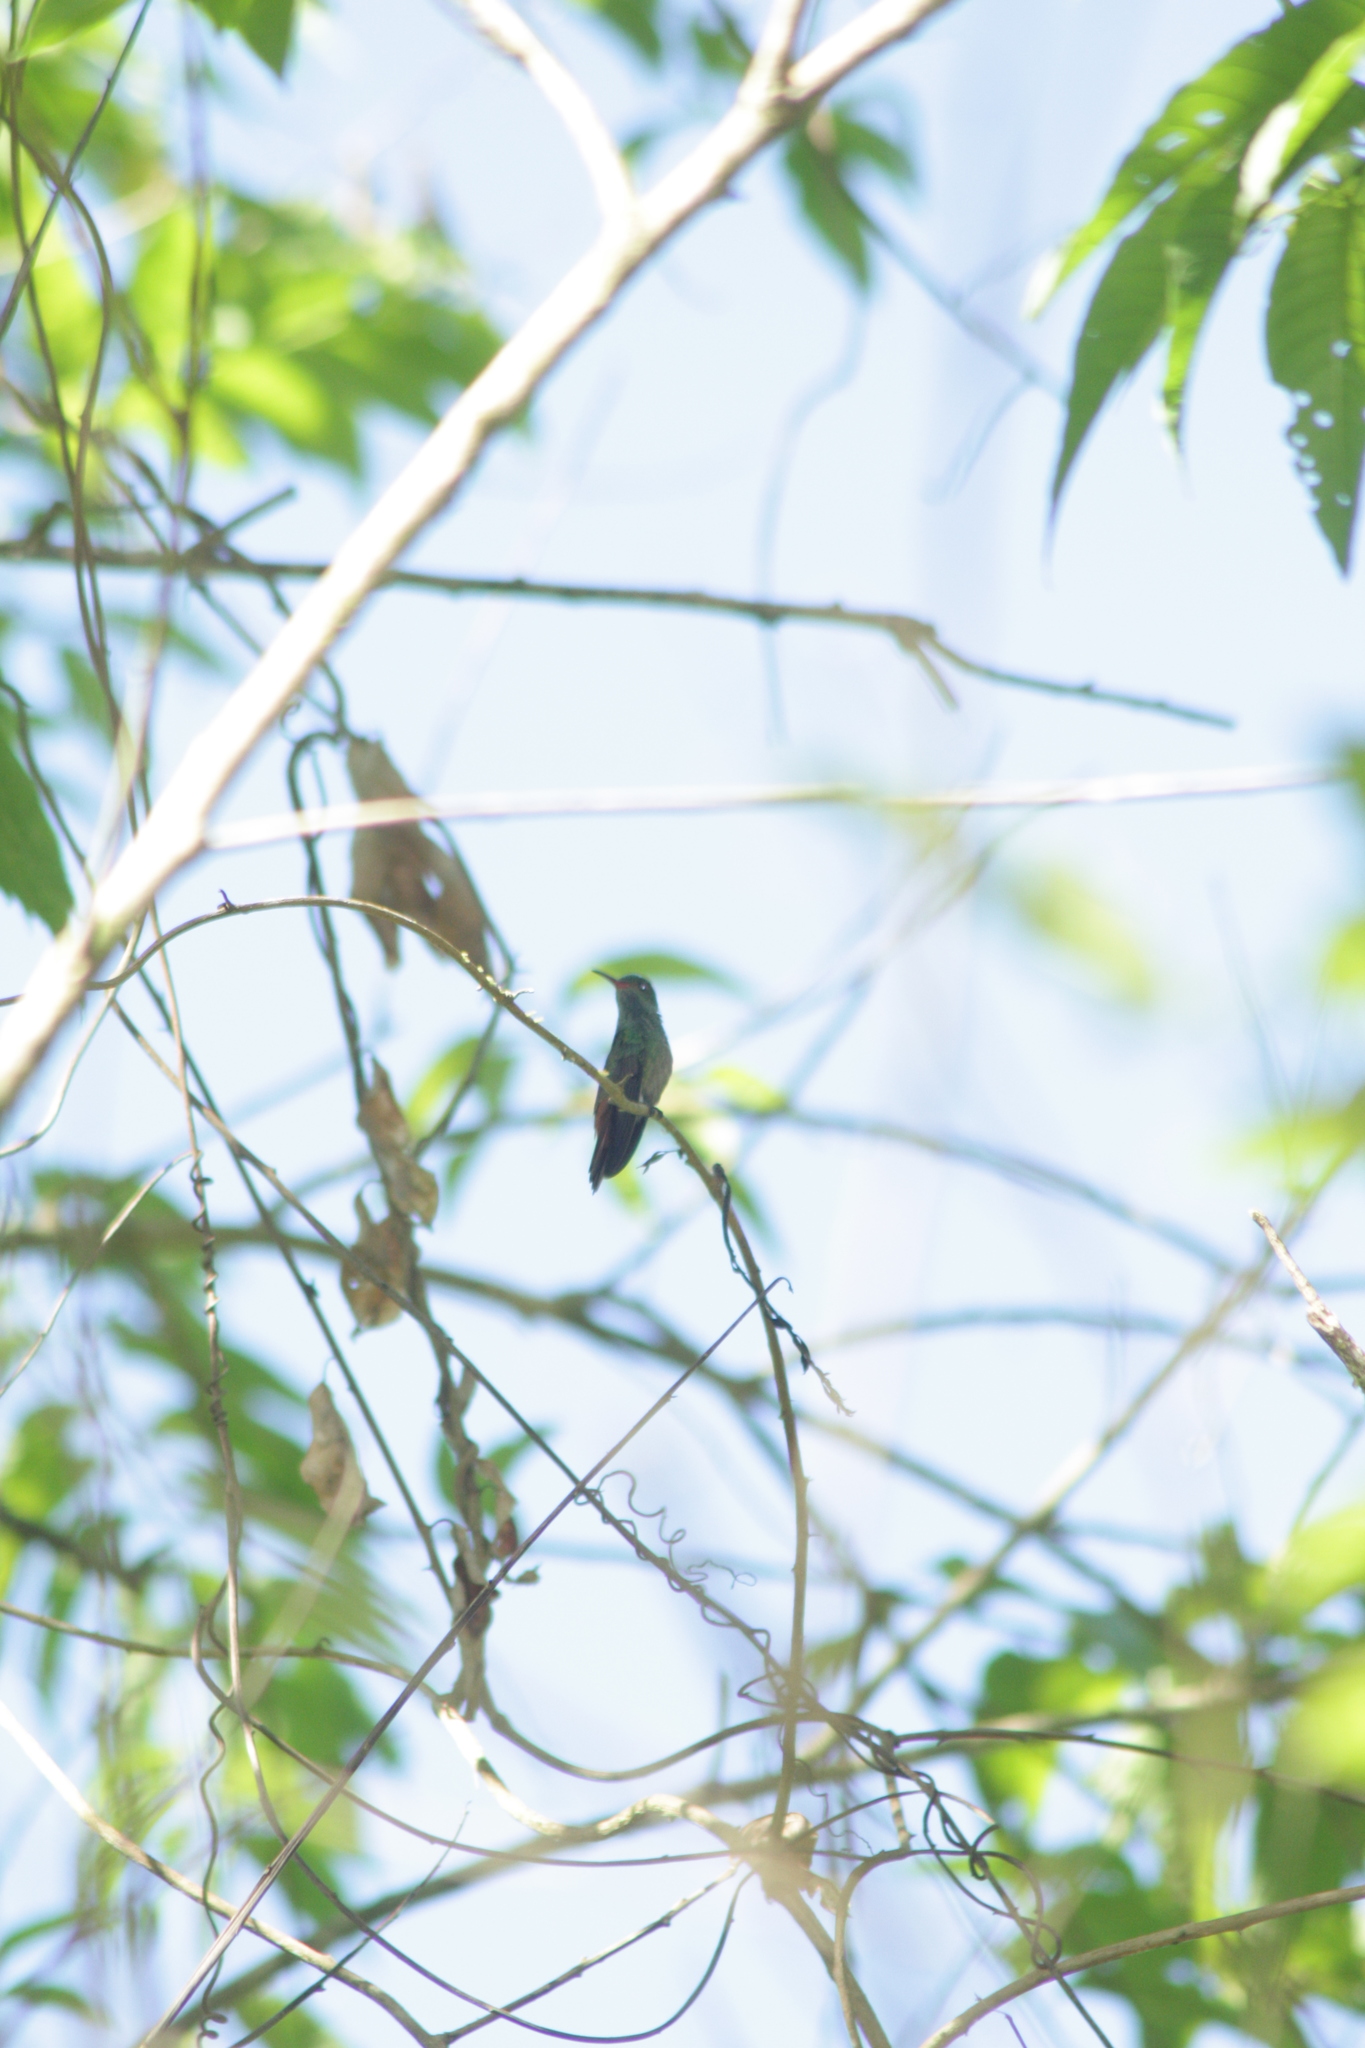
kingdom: Animalia
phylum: Chordata
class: Aves
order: Apodiformes
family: Trochilidae
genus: Amazilia
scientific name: Amazilia tzacatl
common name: Rufous-tailed hummingbird
